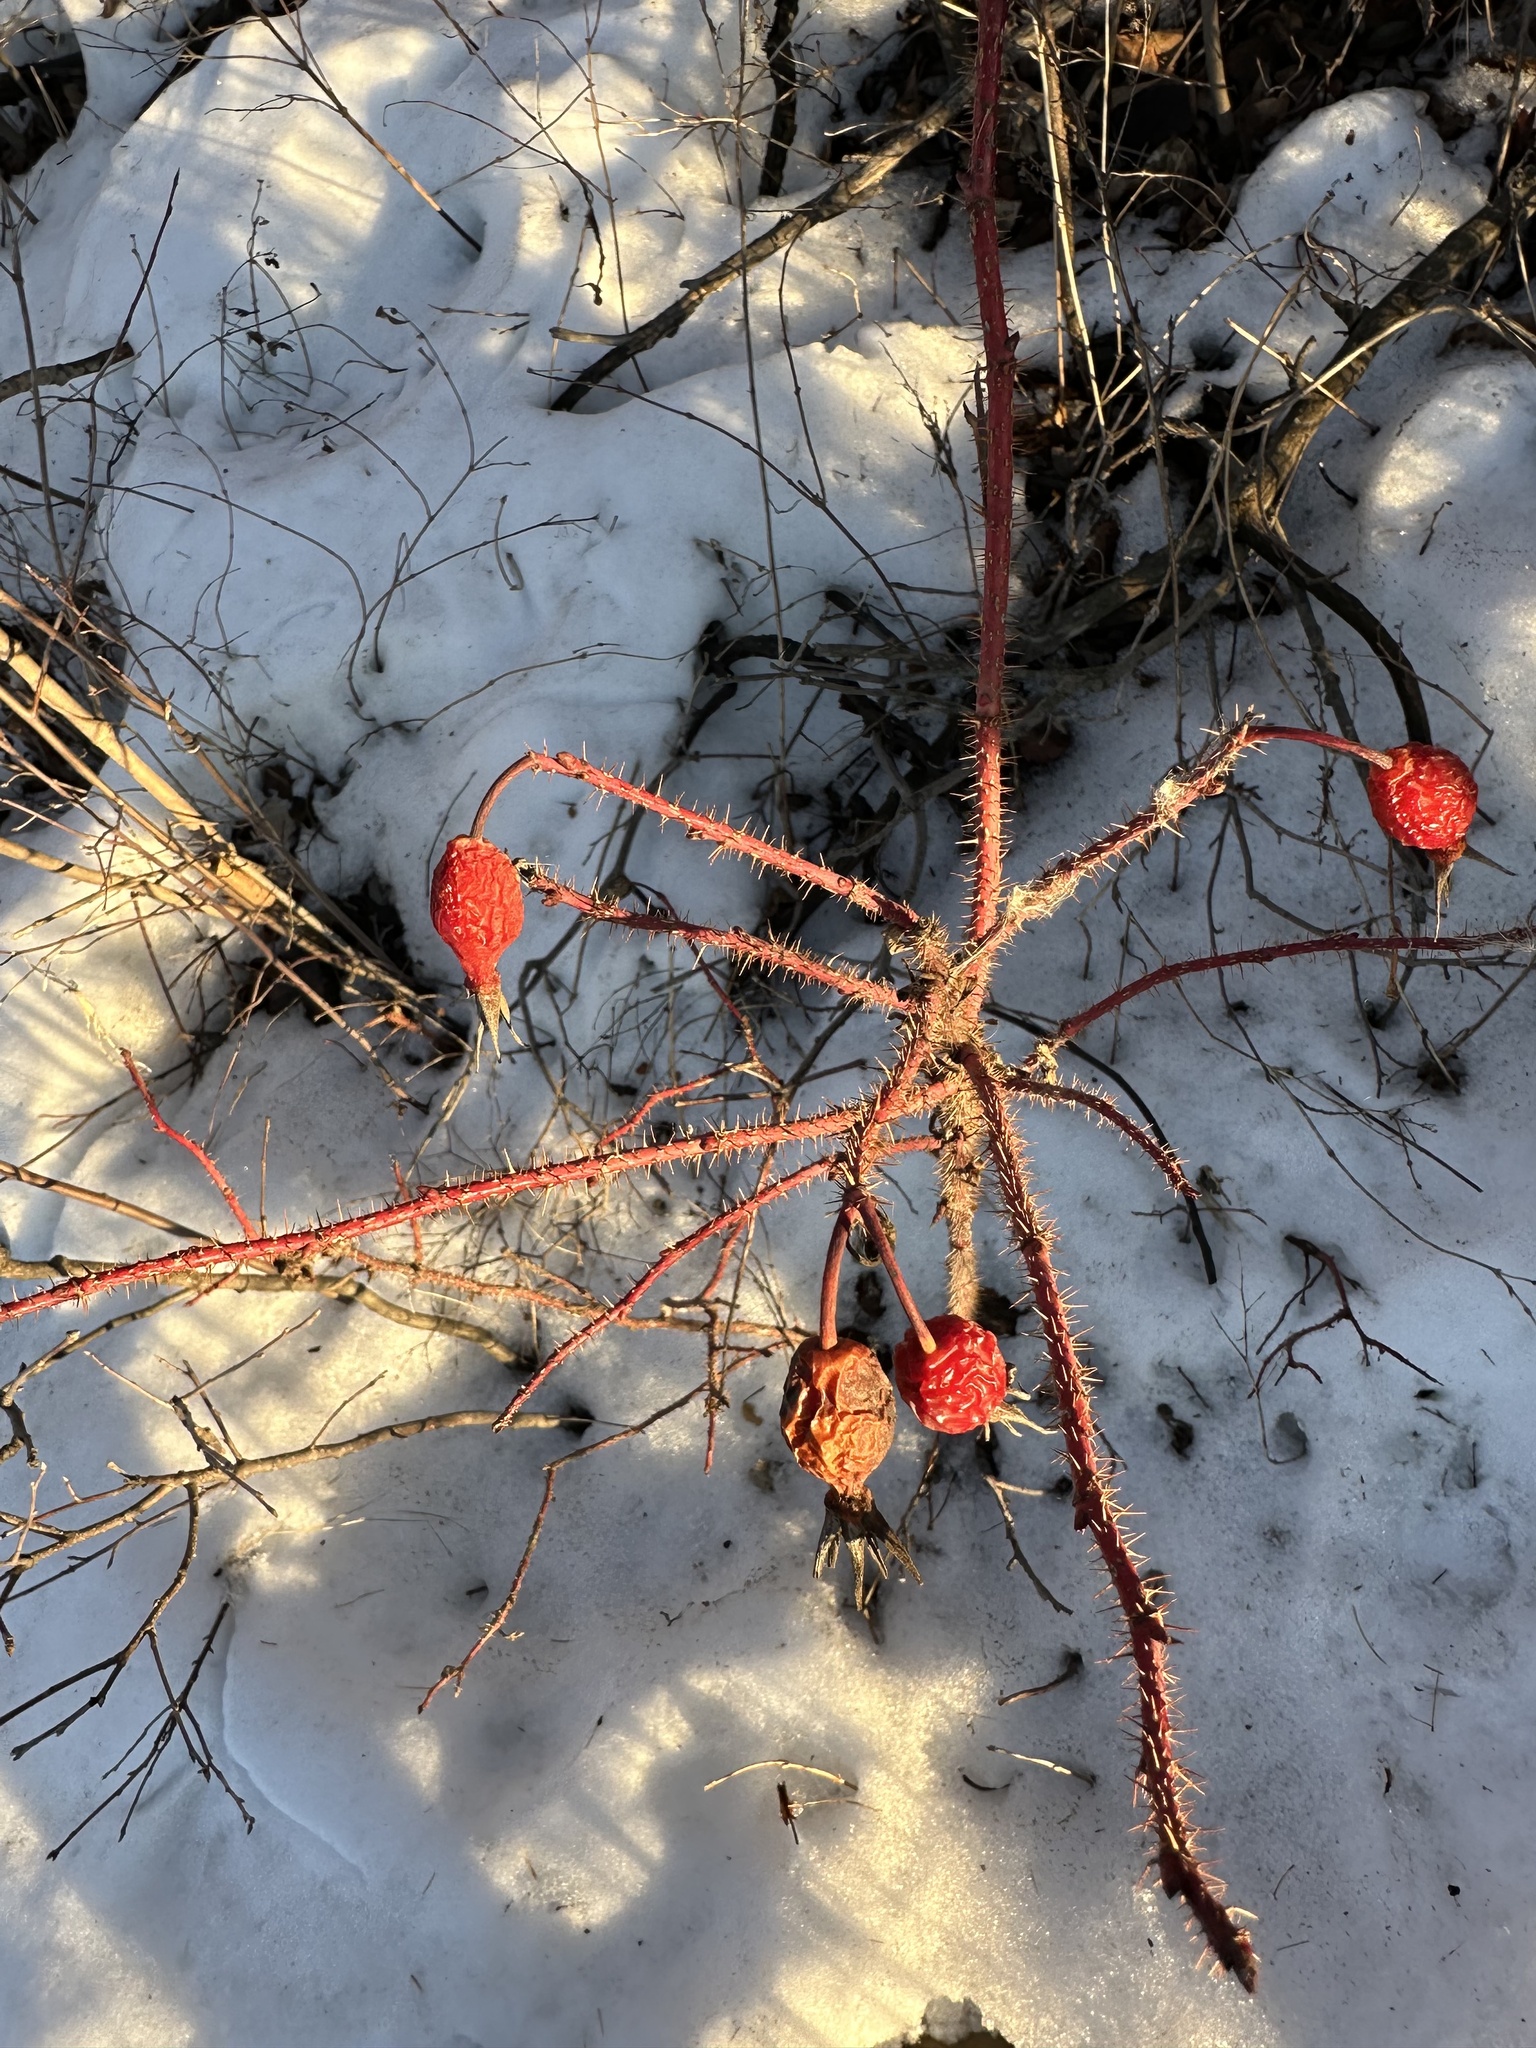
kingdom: Plantae
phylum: Tracheophyta
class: Magnoliopsida
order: Rosales
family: Rosaceae
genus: Rosa
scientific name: Rosa acicularis
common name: Prickly rose
